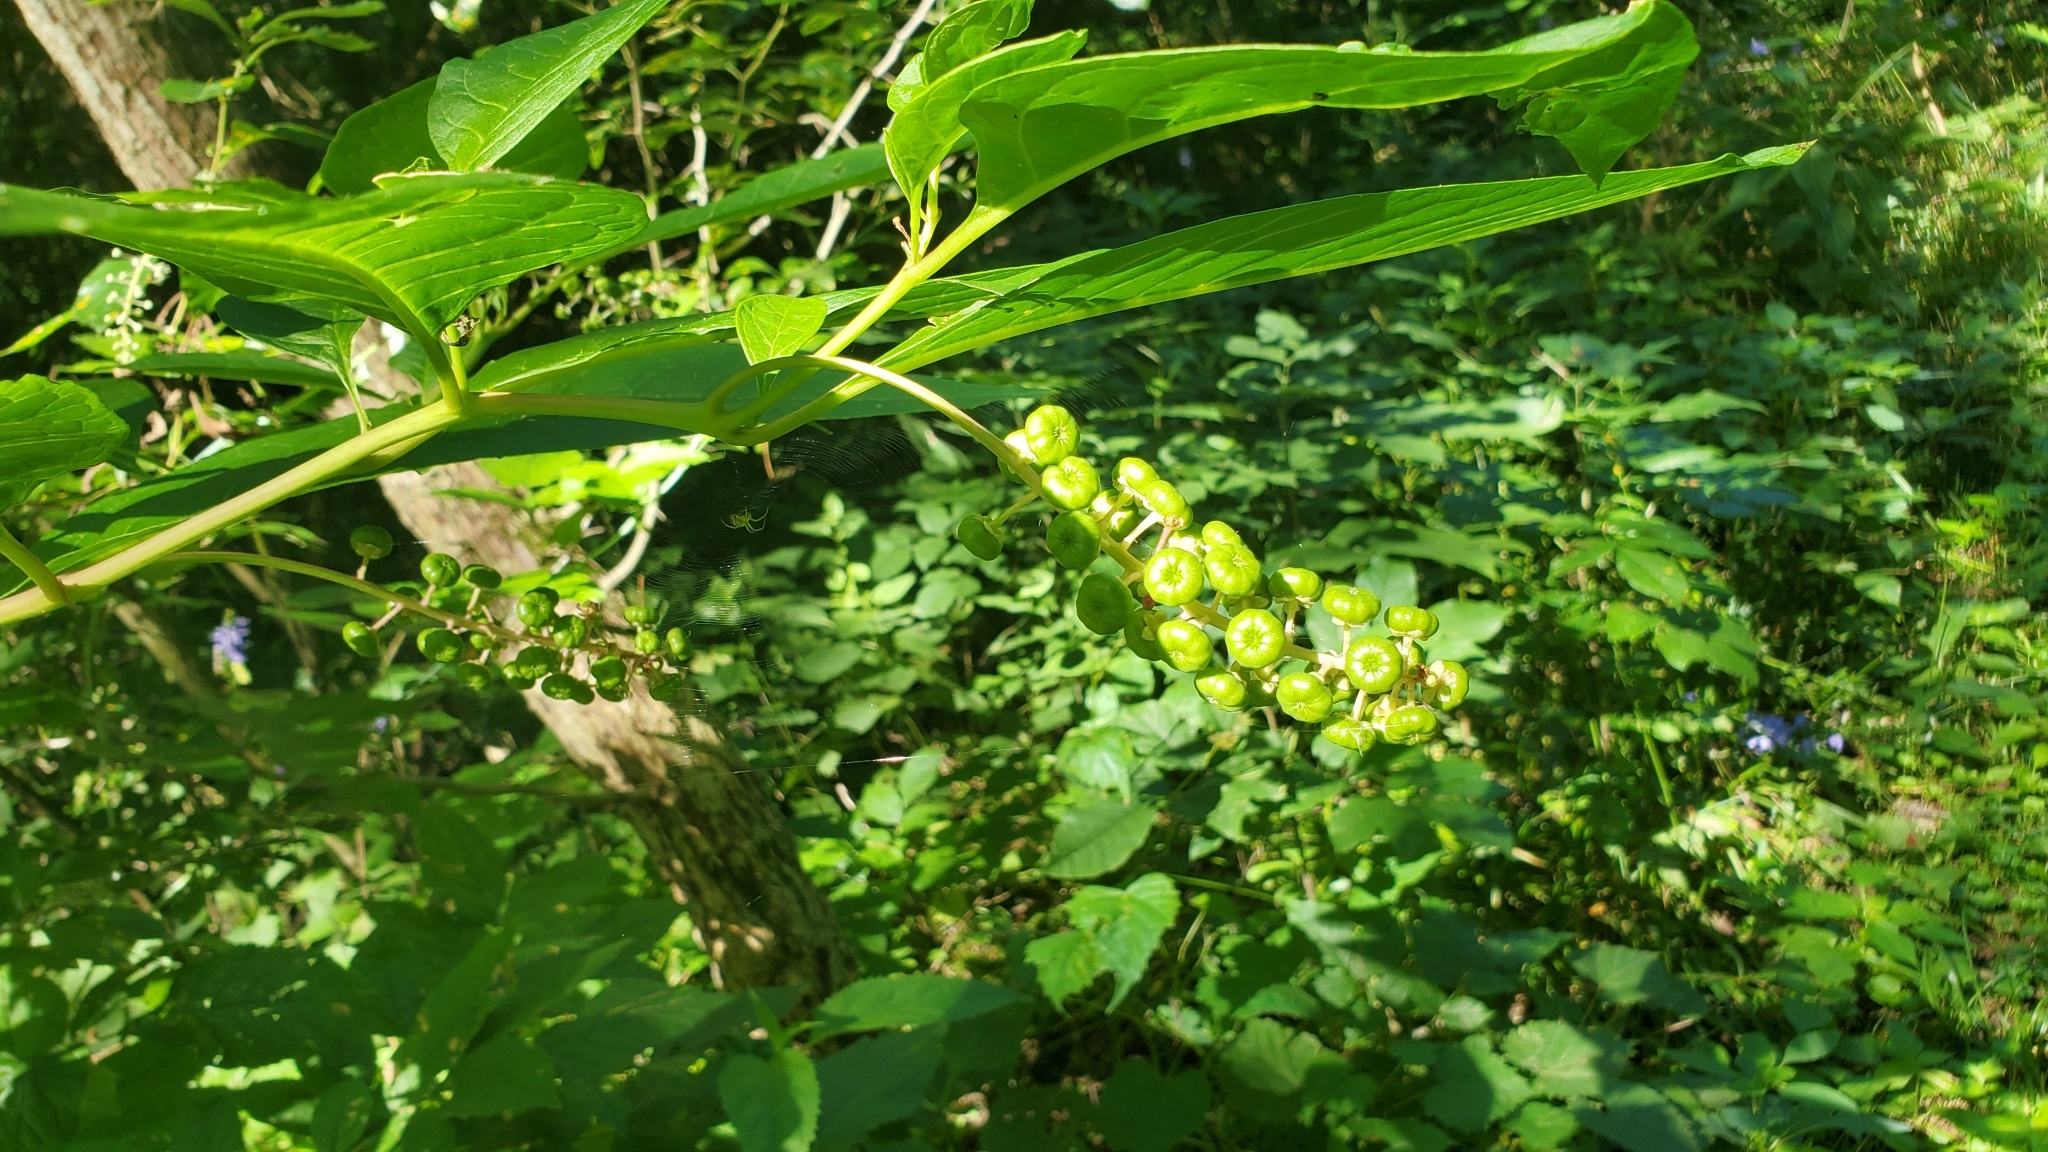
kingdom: Plantae
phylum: Tracheophyta
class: Magnoliopsida
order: Caryophyllales
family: Phytolaccaceae
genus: Phytolacca
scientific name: Phytolacca americana
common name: American pokeweed
